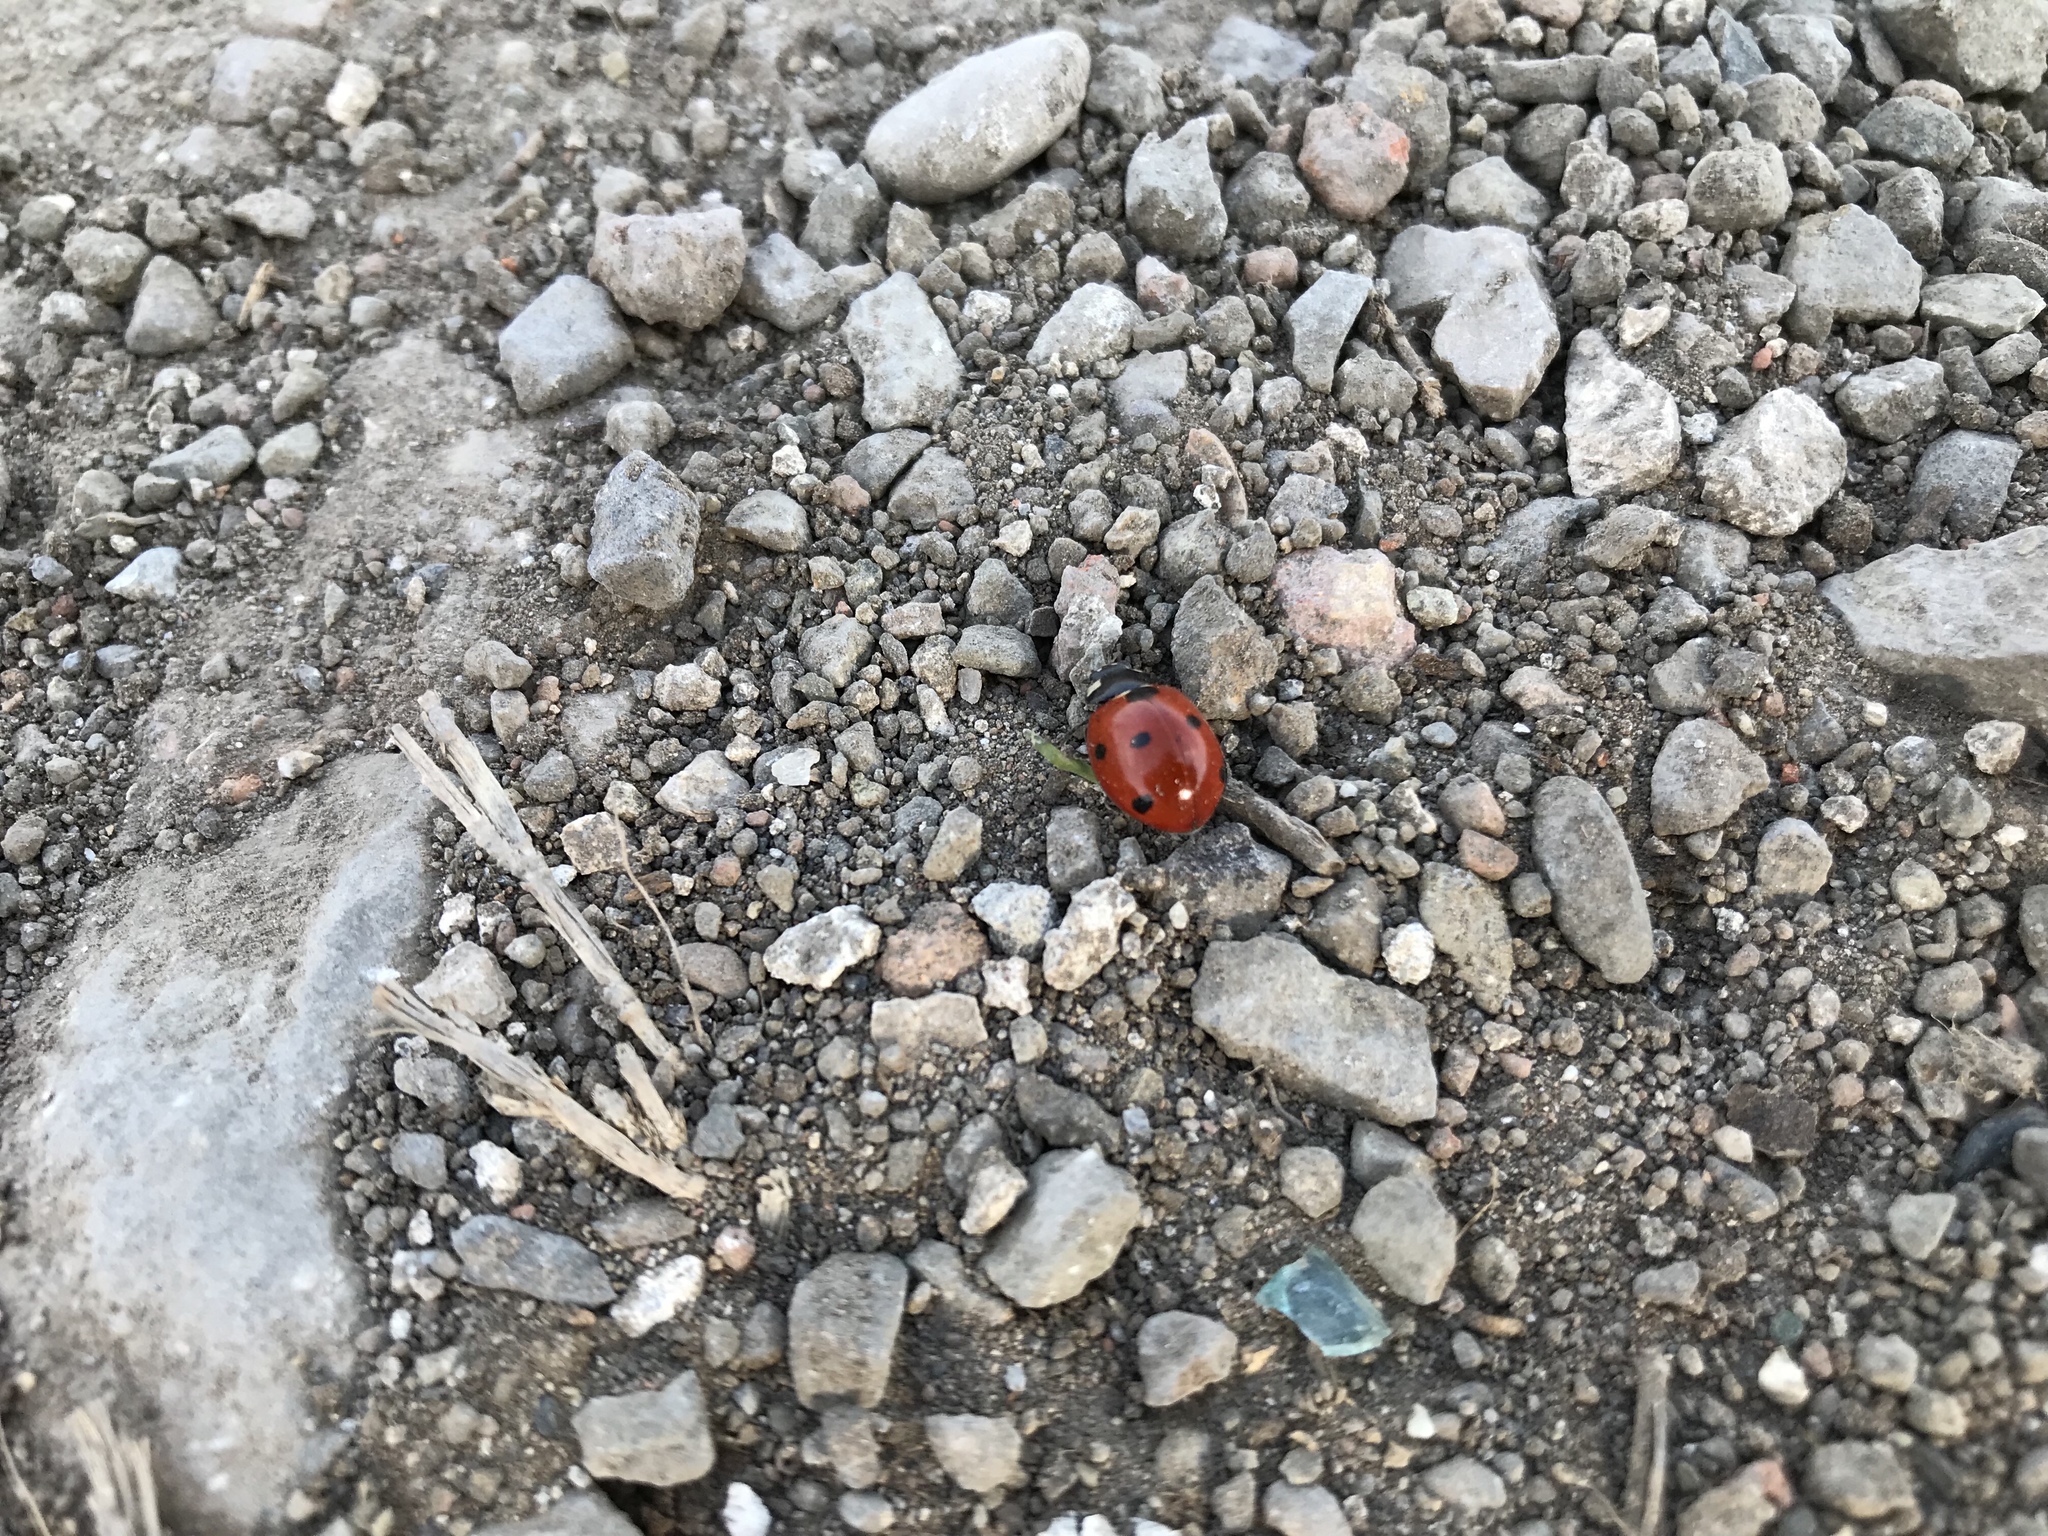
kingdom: Animalia
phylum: Arthropoda
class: Insecta
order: Coleoptera
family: Coccinellidae
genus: Coccinella
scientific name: Coccinella septempunctata
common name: Sevenspotted lady beetle
